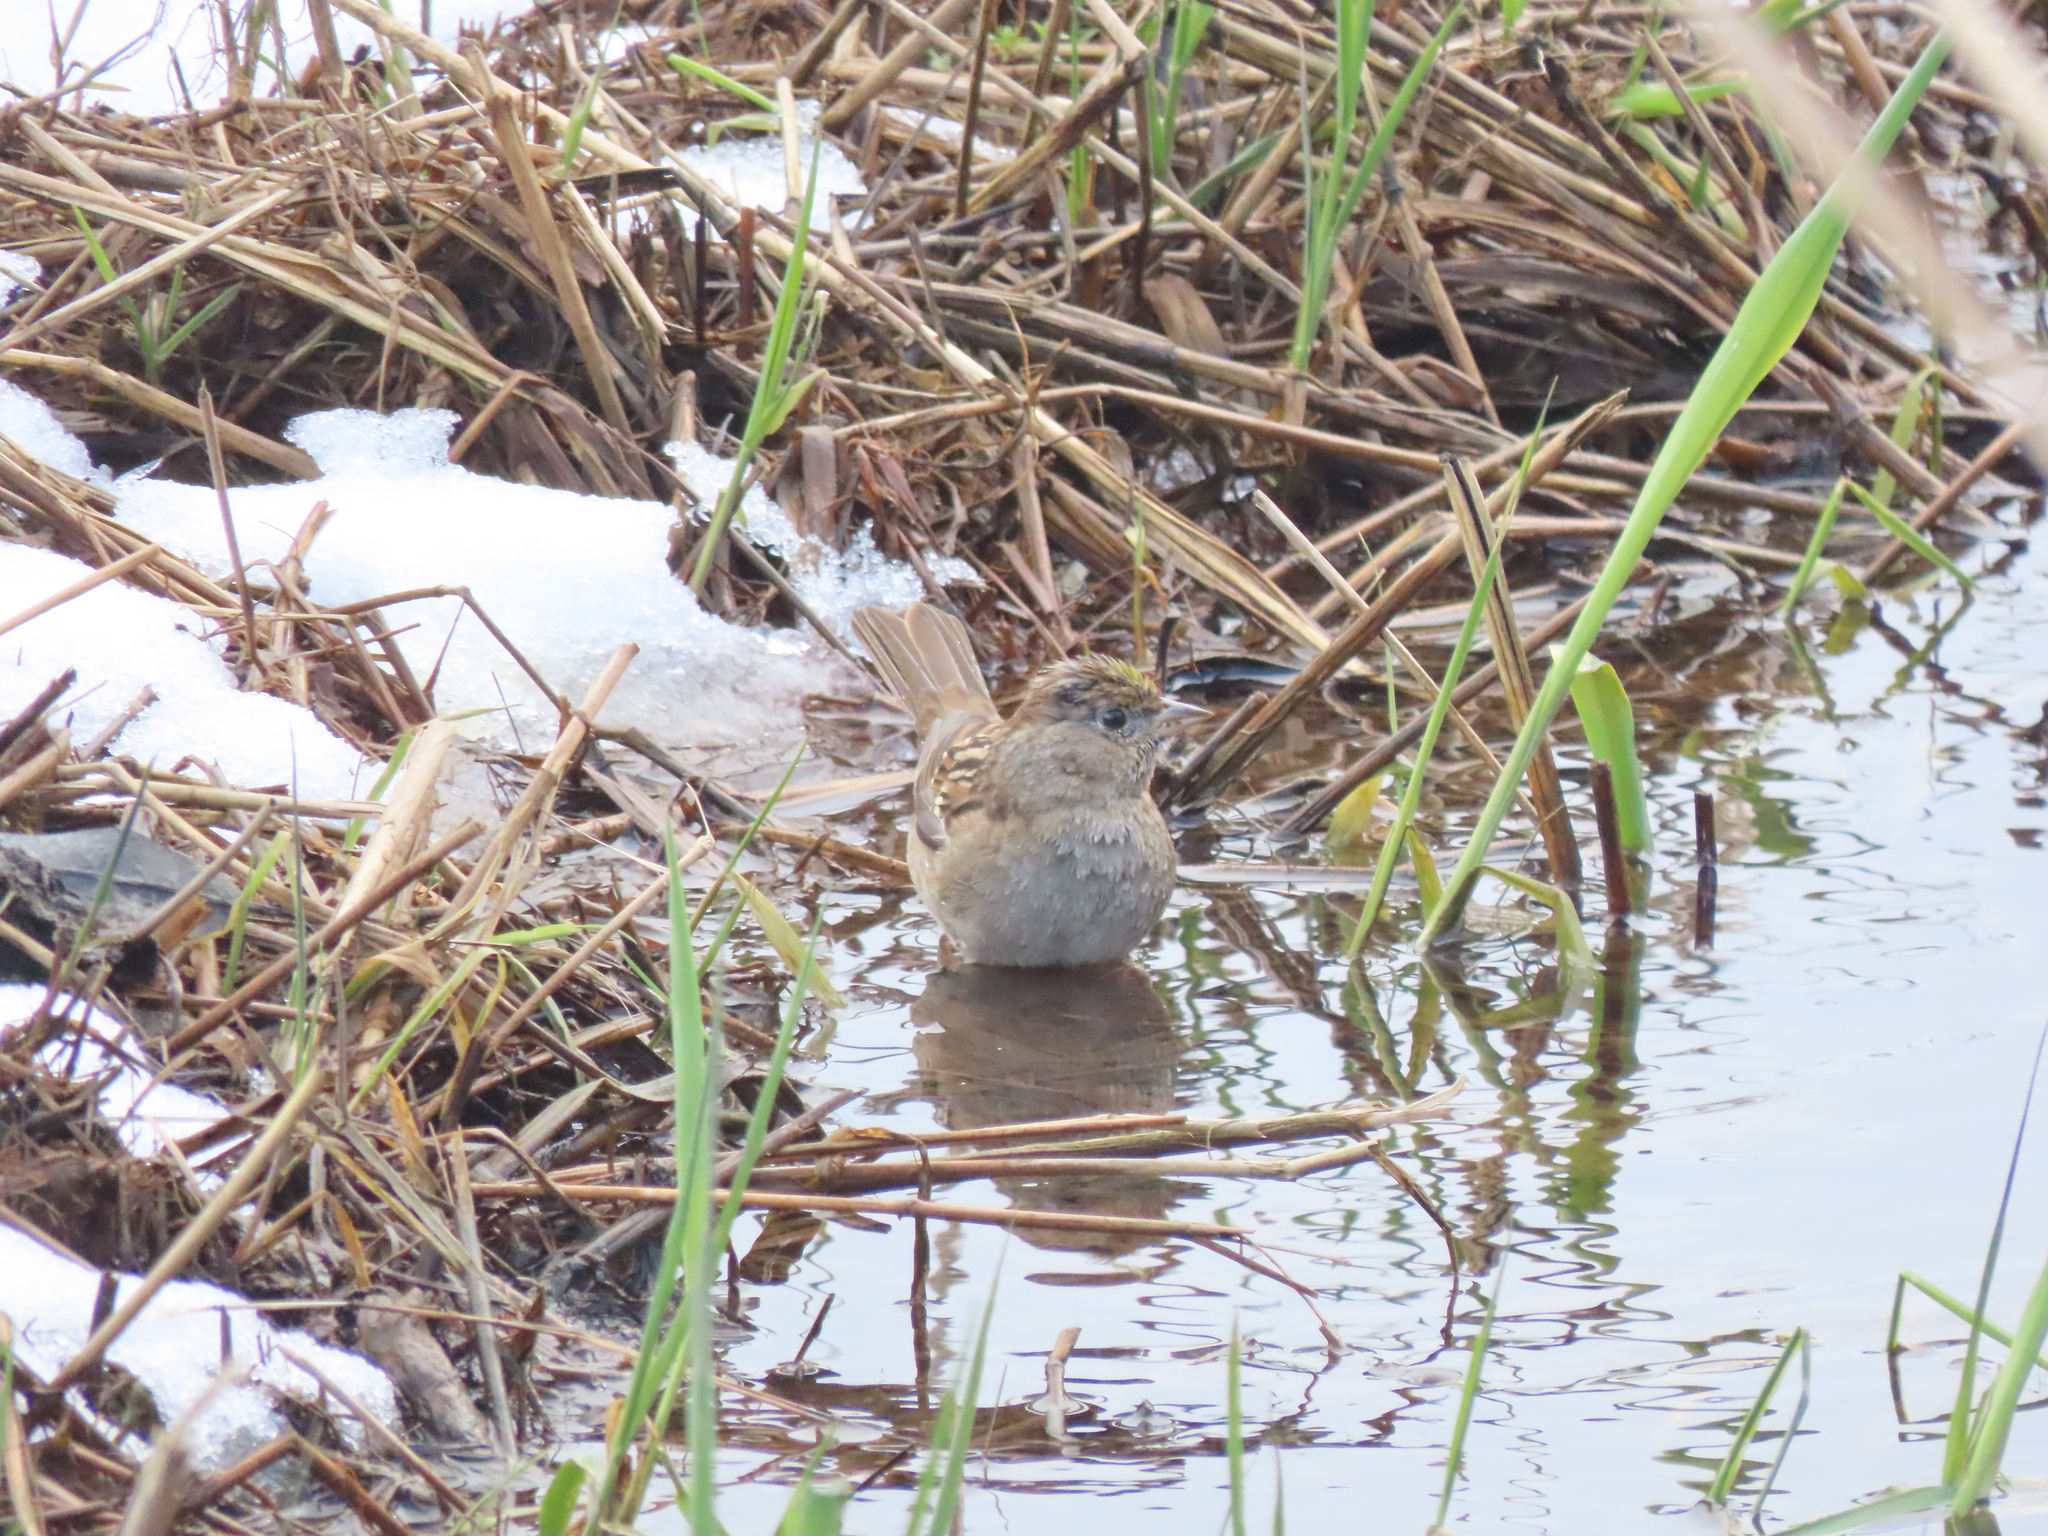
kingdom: Animalia
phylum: Chordata
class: Aves
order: Passeriformes
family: Passerellidae
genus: Zonotrichia
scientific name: Zonotrichia atricapilla
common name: Golden-crowned sparrow
